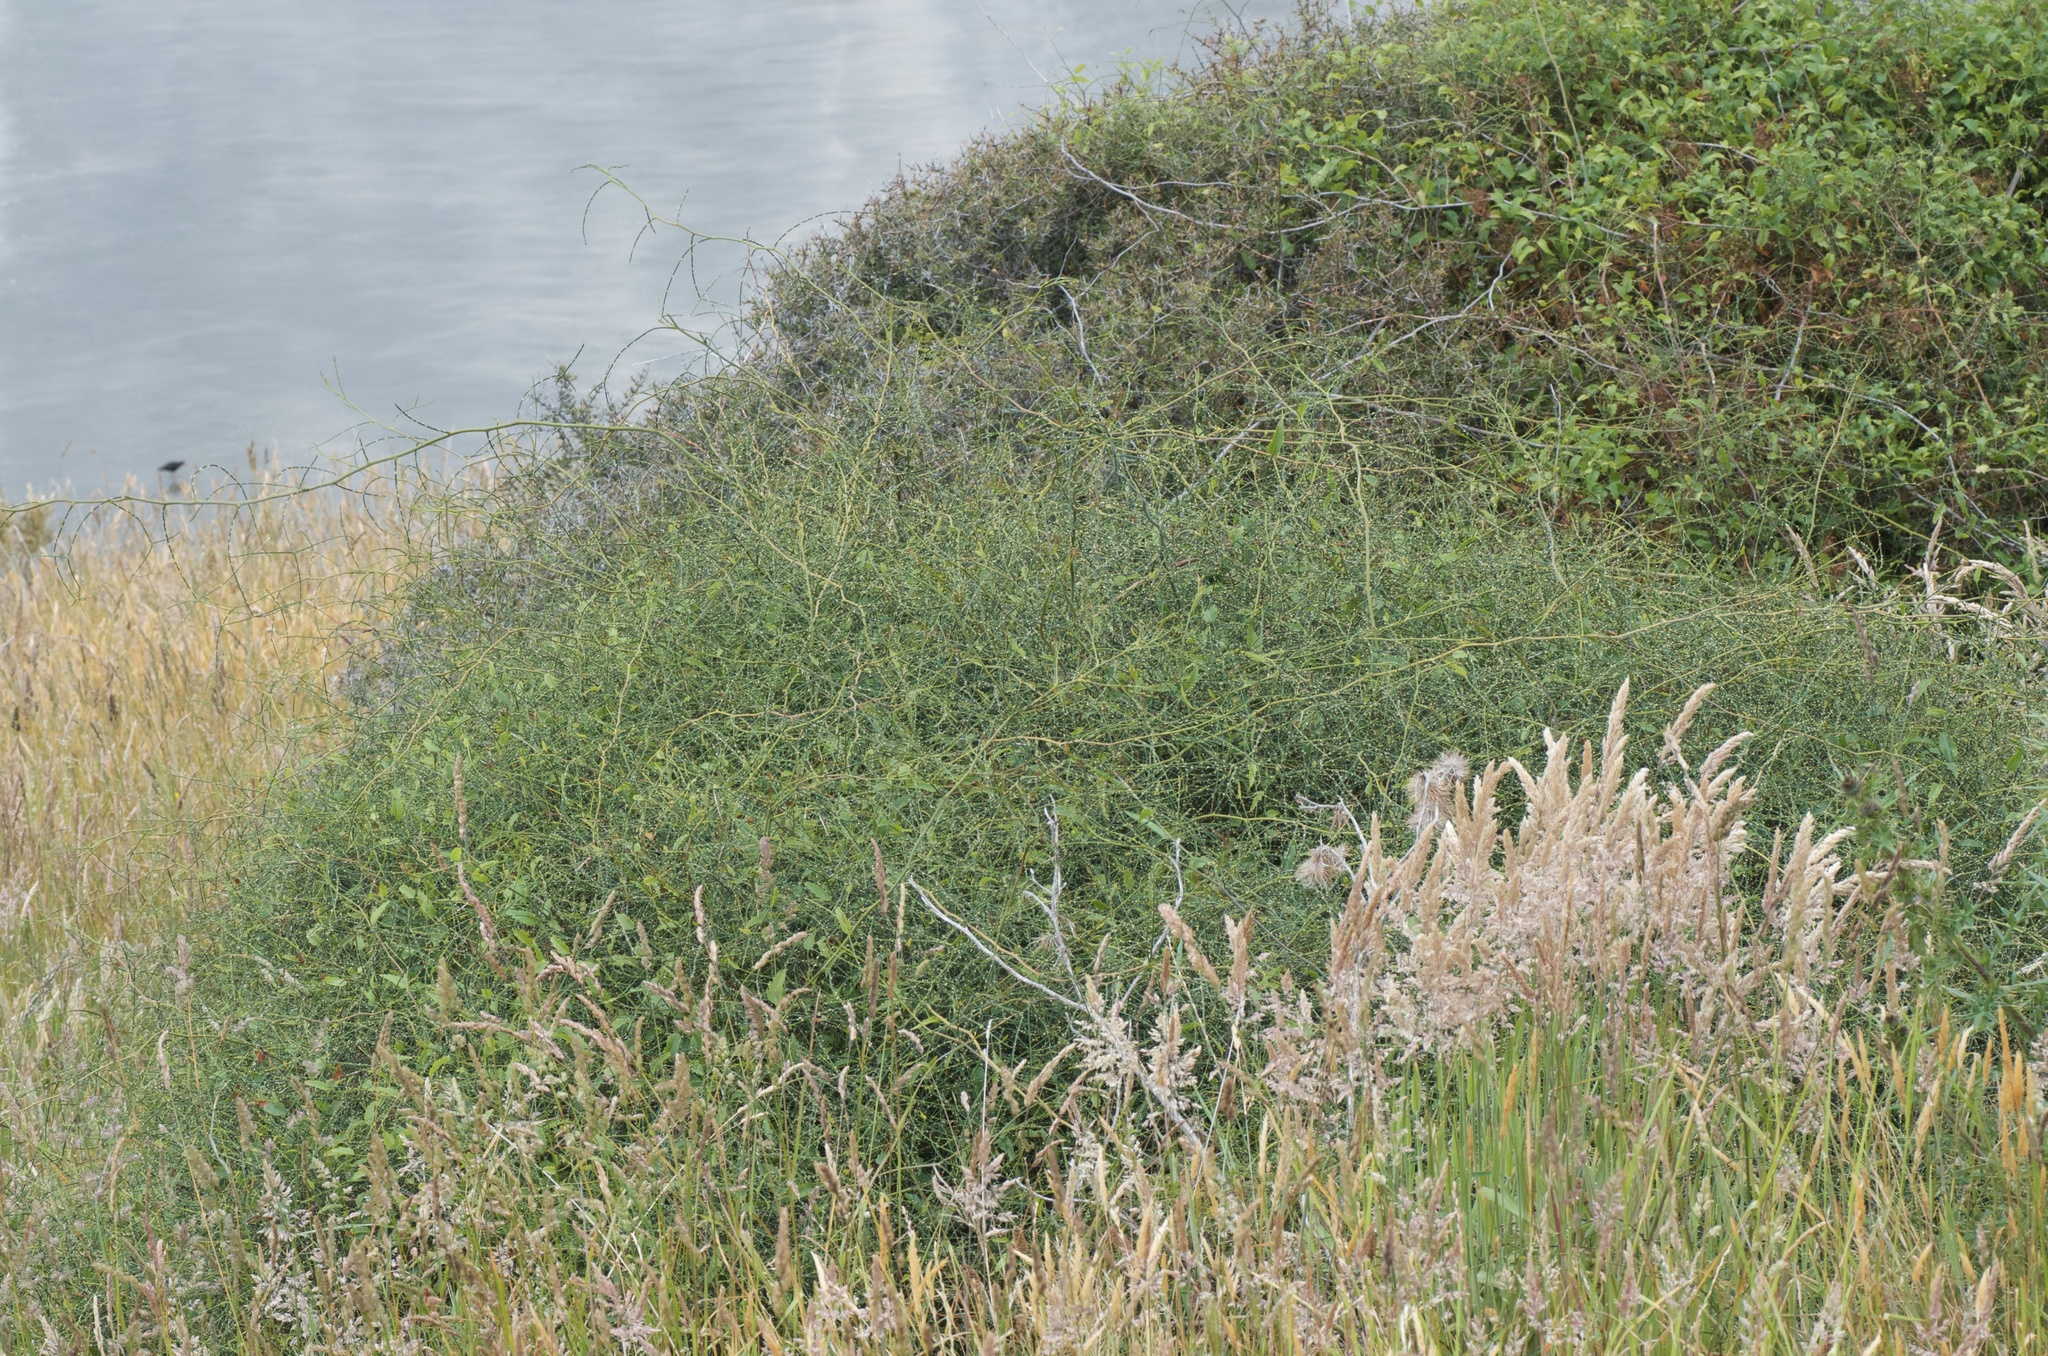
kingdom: Plantae
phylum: Tracheophyta
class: Magnoliopsida
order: Rosales
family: Rosaceae
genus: Rubus
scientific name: Rubus squarrosus
